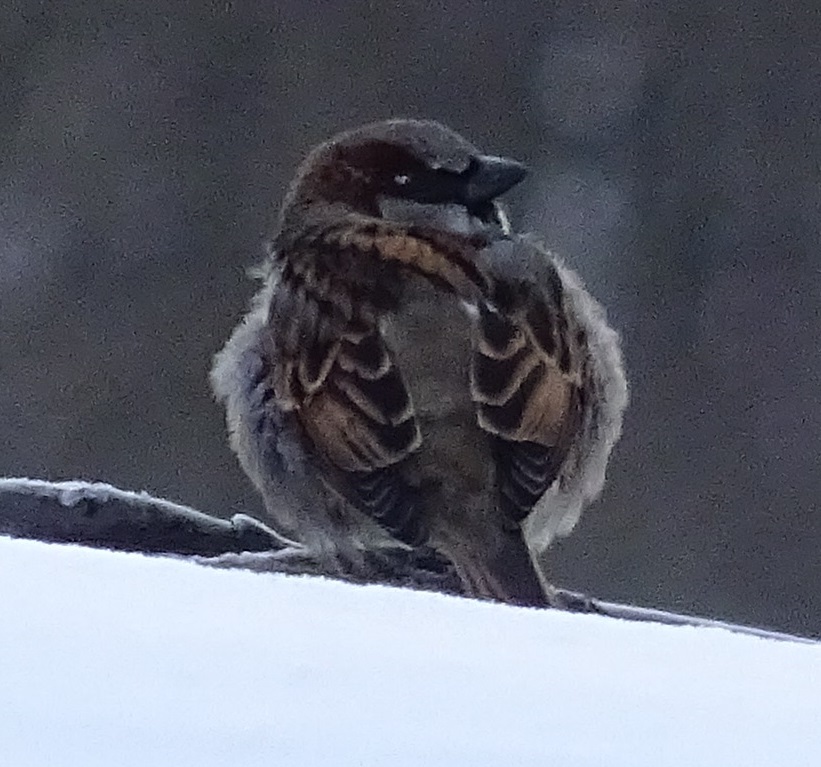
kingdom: Animalia
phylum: Chordata
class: Aves
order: Passeriformes
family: Passeridae
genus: Passer
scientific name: Passer domesticus
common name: House sparrow
